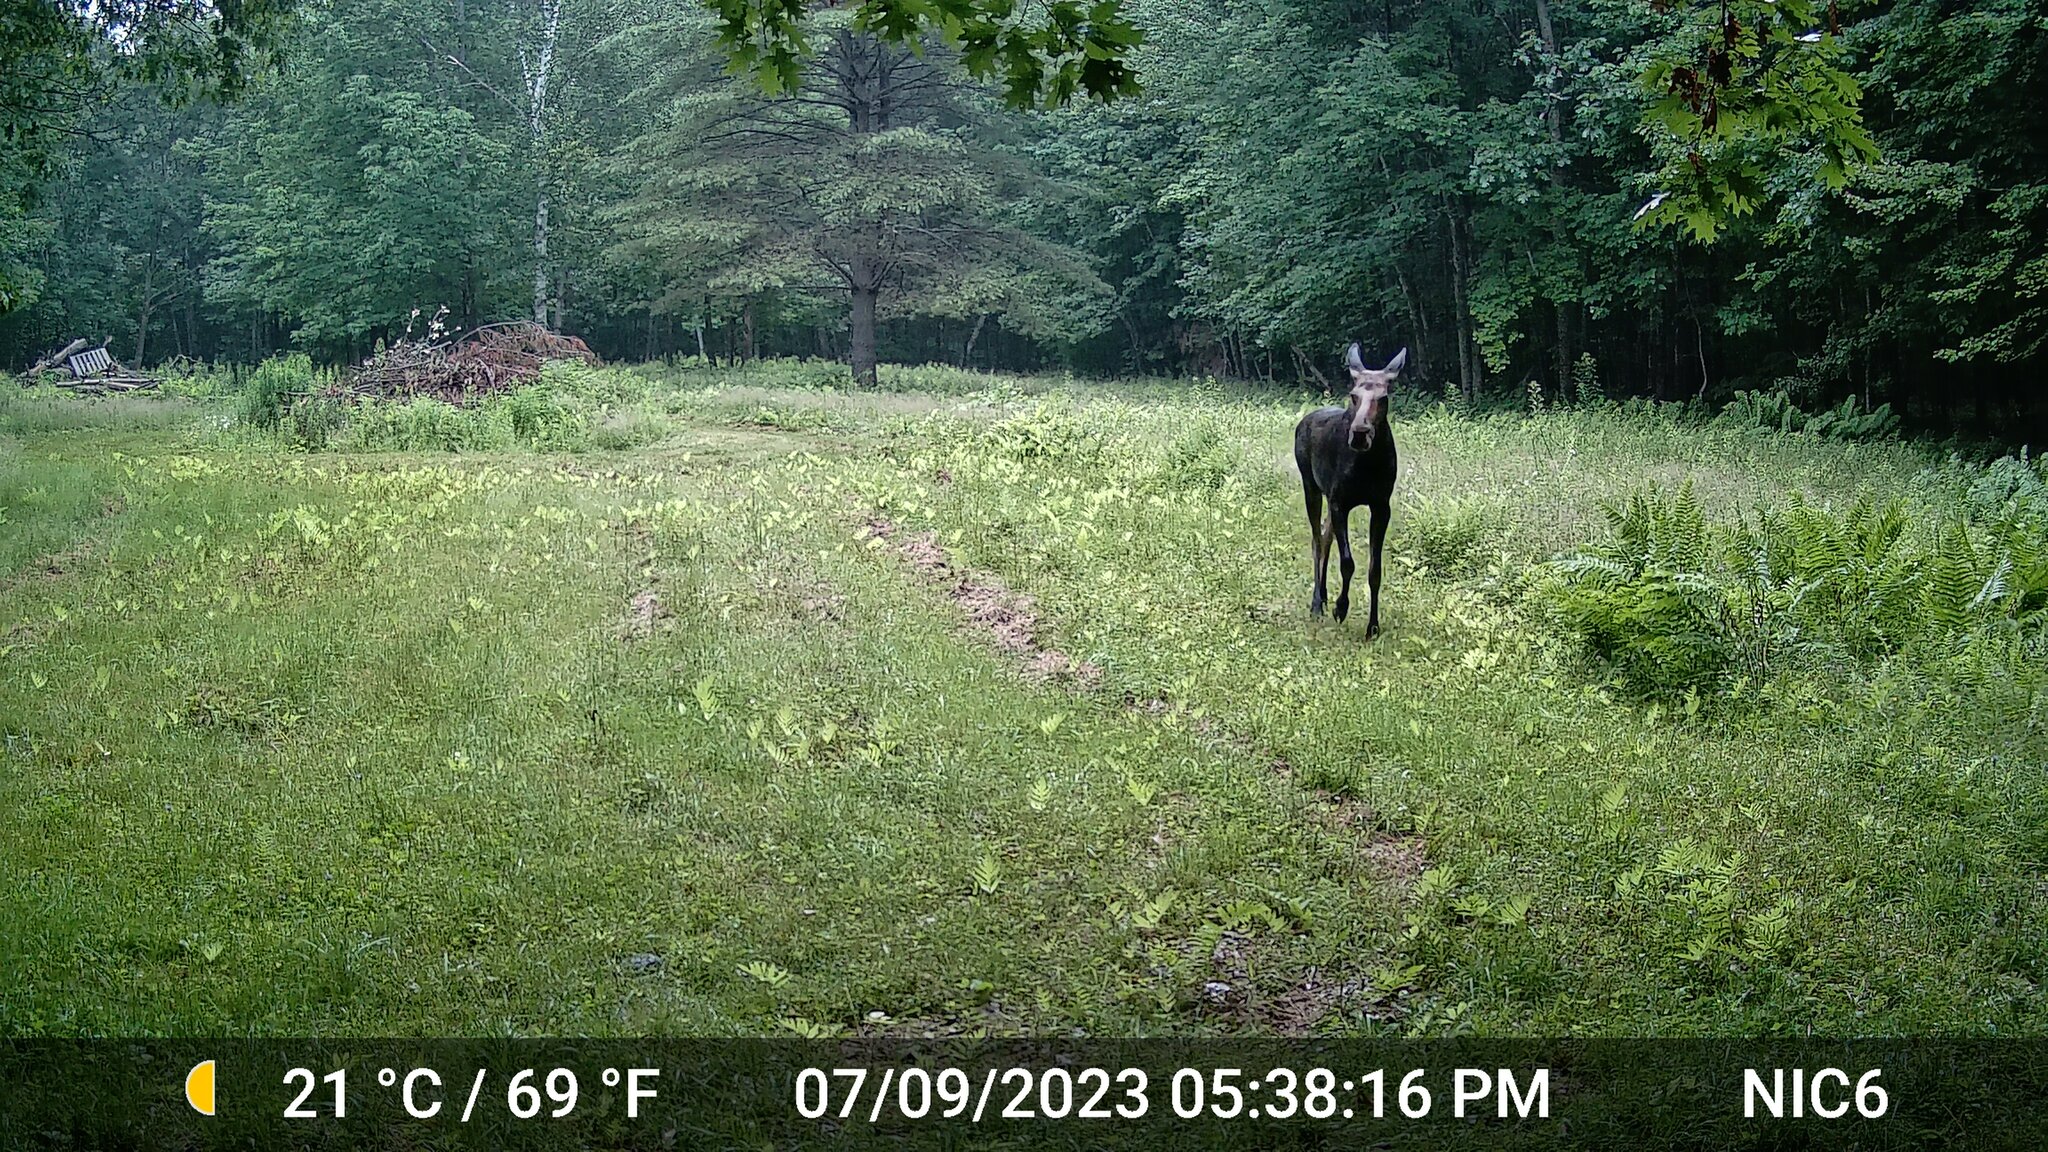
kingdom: Animalia
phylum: Chordata
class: Mammalia
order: Artiodactyla
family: Cervidae
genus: Alces
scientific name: Alces alces
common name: Moose
